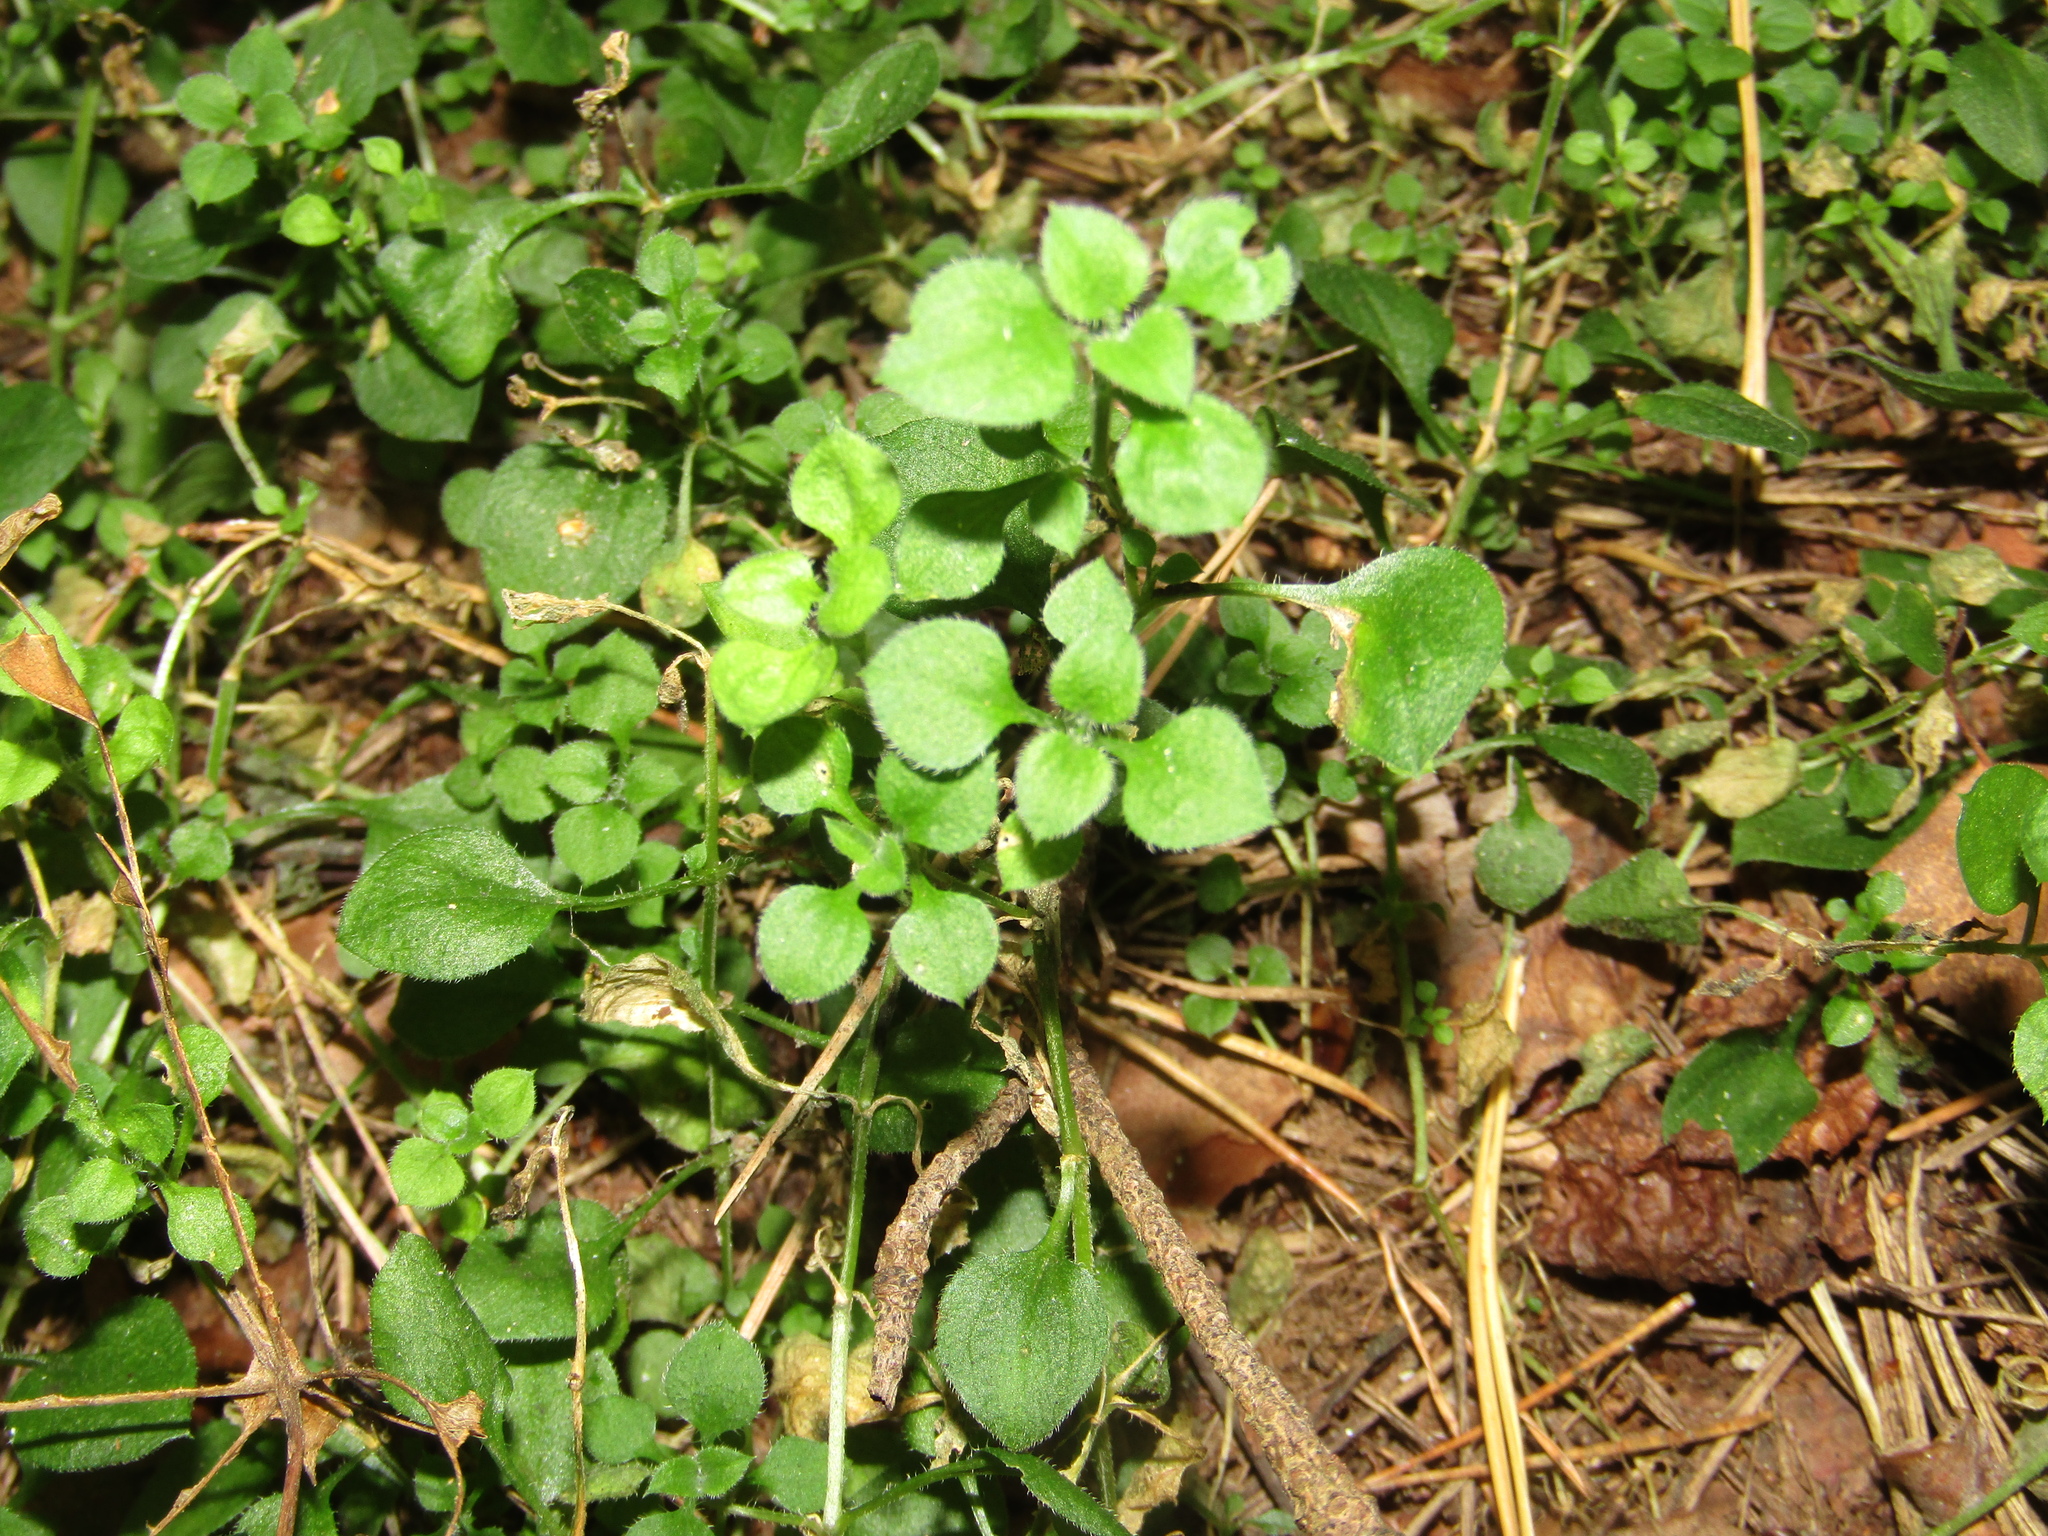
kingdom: Plantae
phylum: Tracheophyta
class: Magnoliopsida
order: Caryophyllales
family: Caryophyllaceae
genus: Moehringia
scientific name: Moehringia trinervia
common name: Three-nerved sandwort
